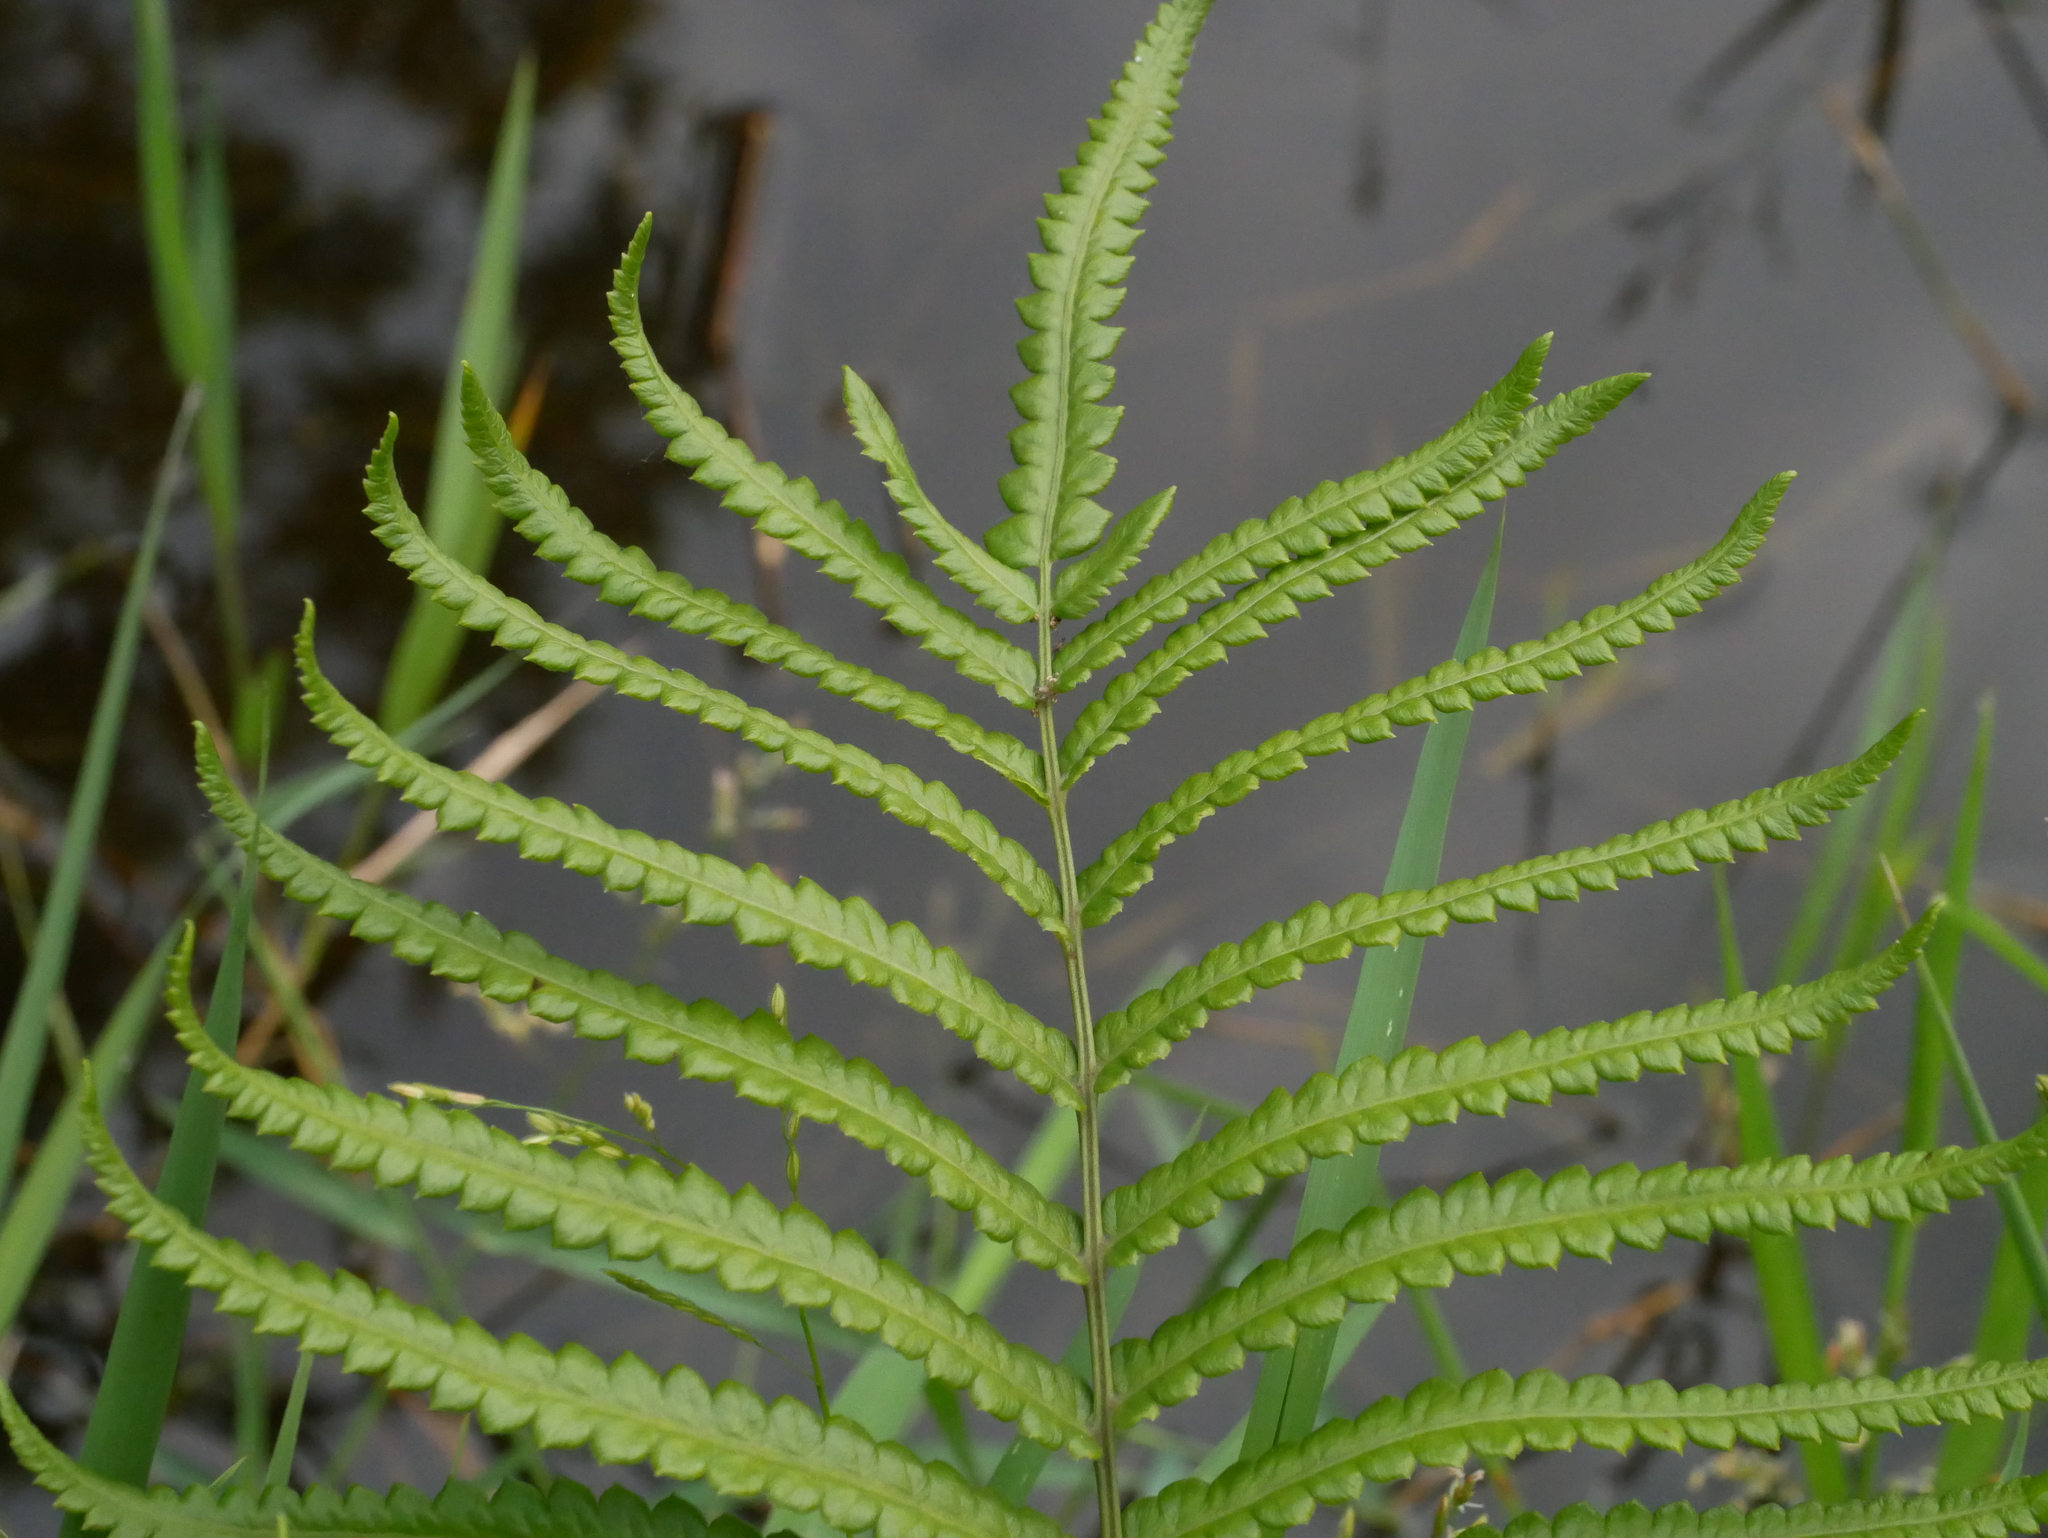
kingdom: Plantae
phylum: Tracheophyta
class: Polypodiopsida
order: Polypodiales
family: Thelypteridaceae
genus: Cyclosorus
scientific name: Cyclosorus interruptus
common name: Neke fern
